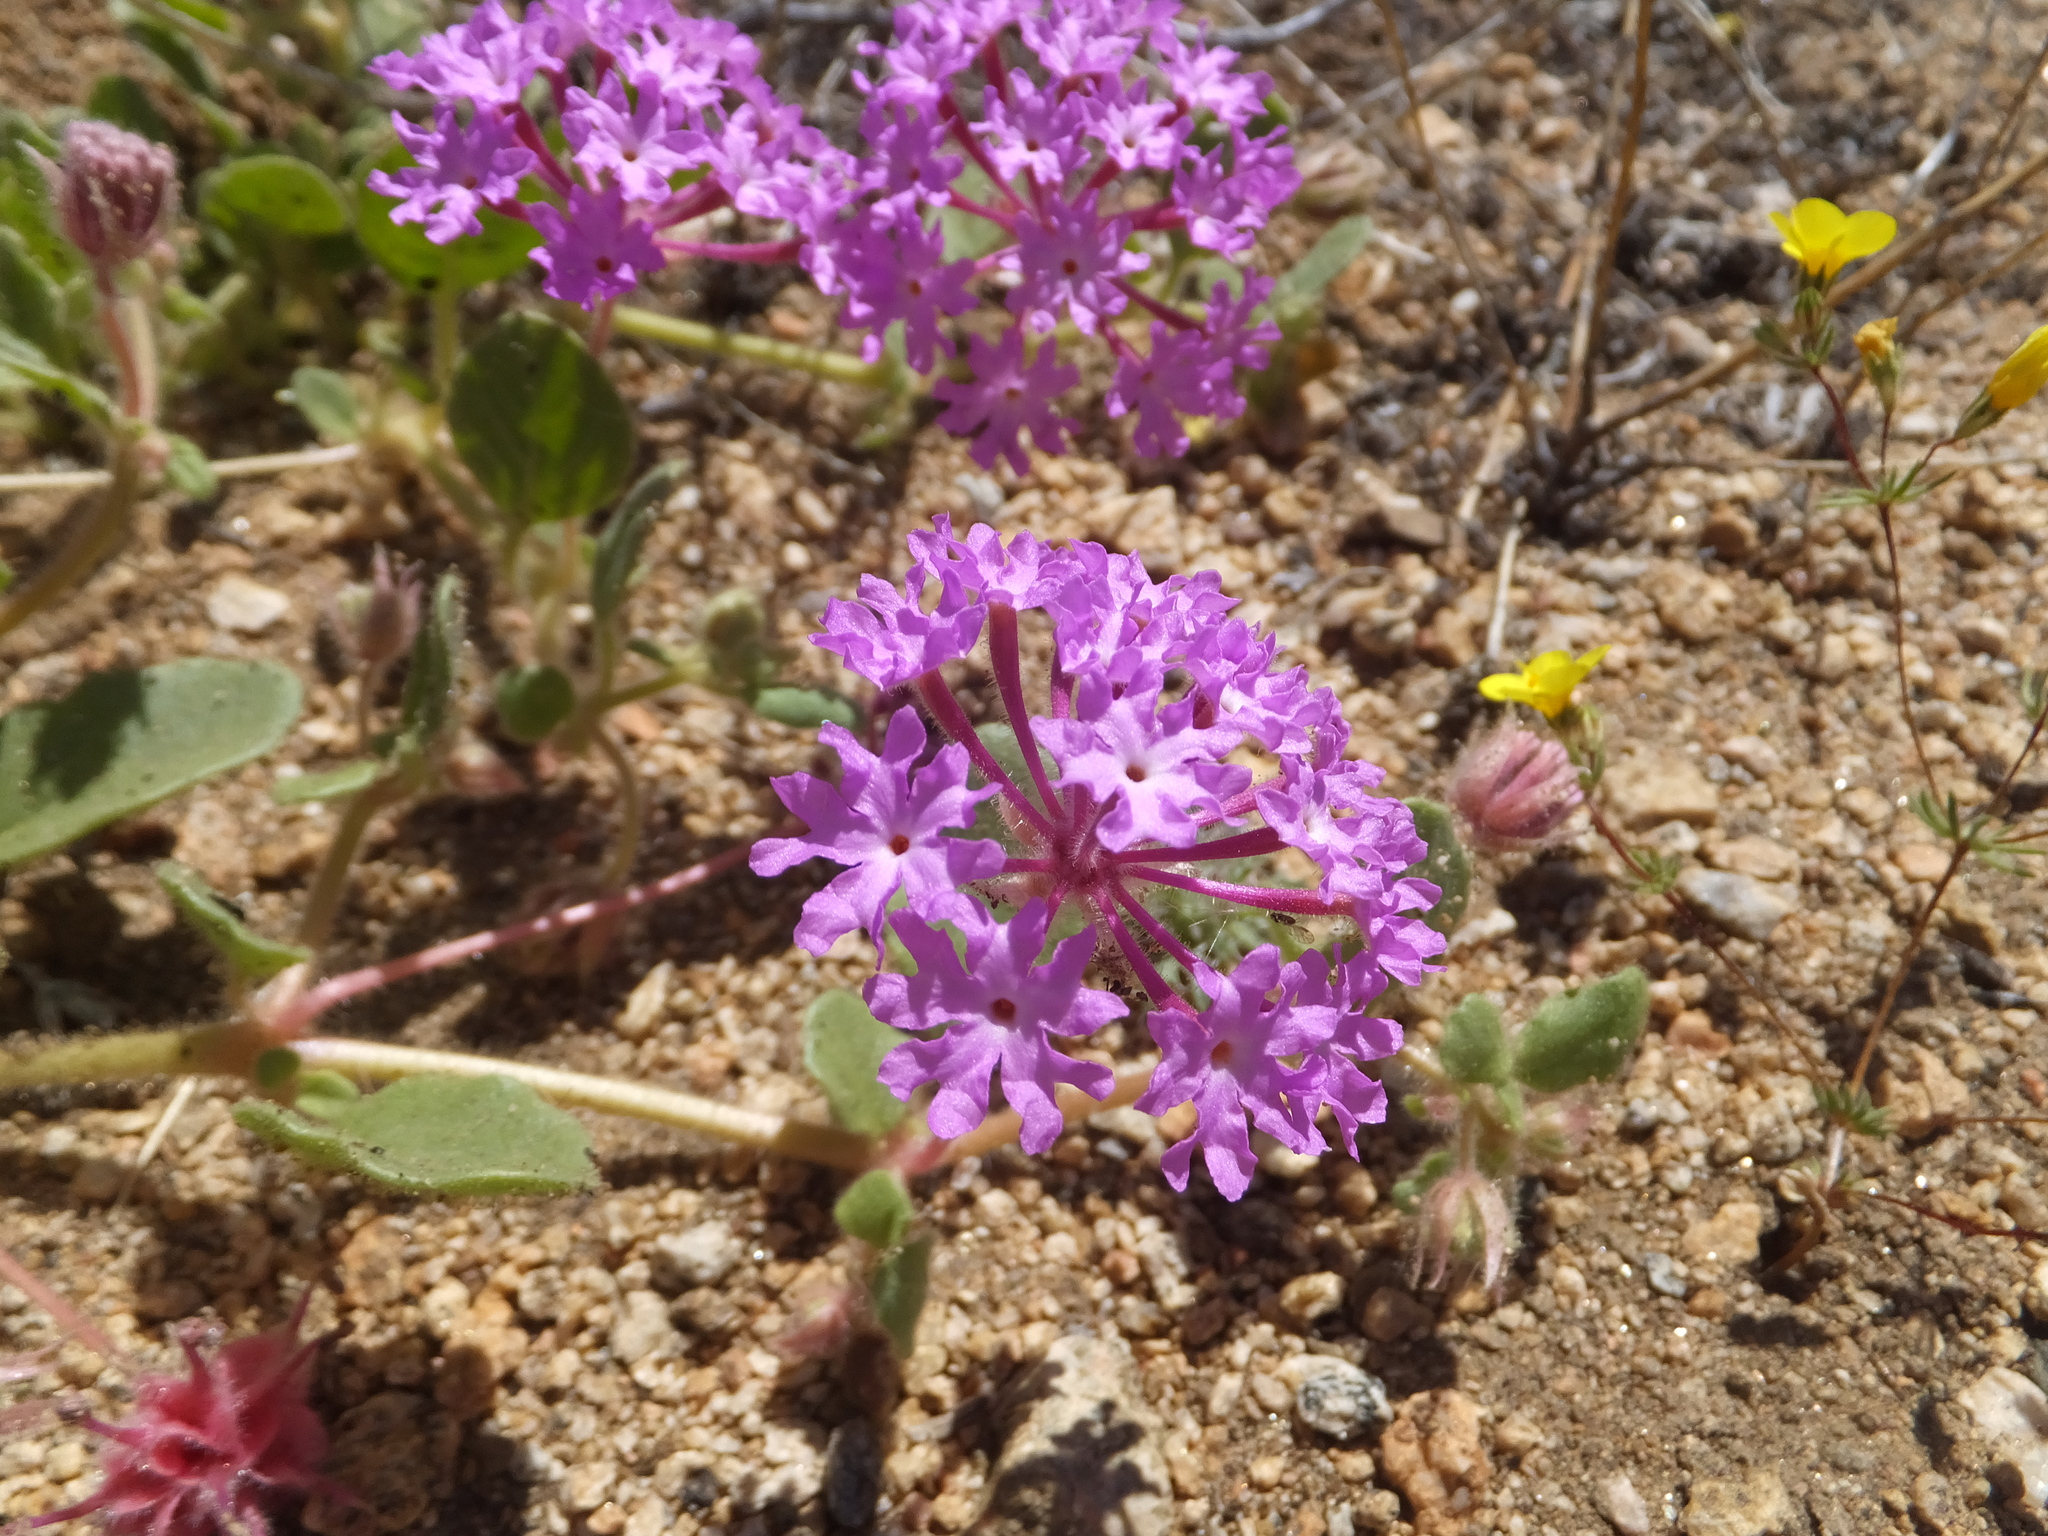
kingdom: Plantae
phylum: Tracheophyta
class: Magnoliopsida
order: Caryophyllales
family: Nyctaginaceae
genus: Abronia
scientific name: Abronia villosa
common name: Desert sand-verbena
